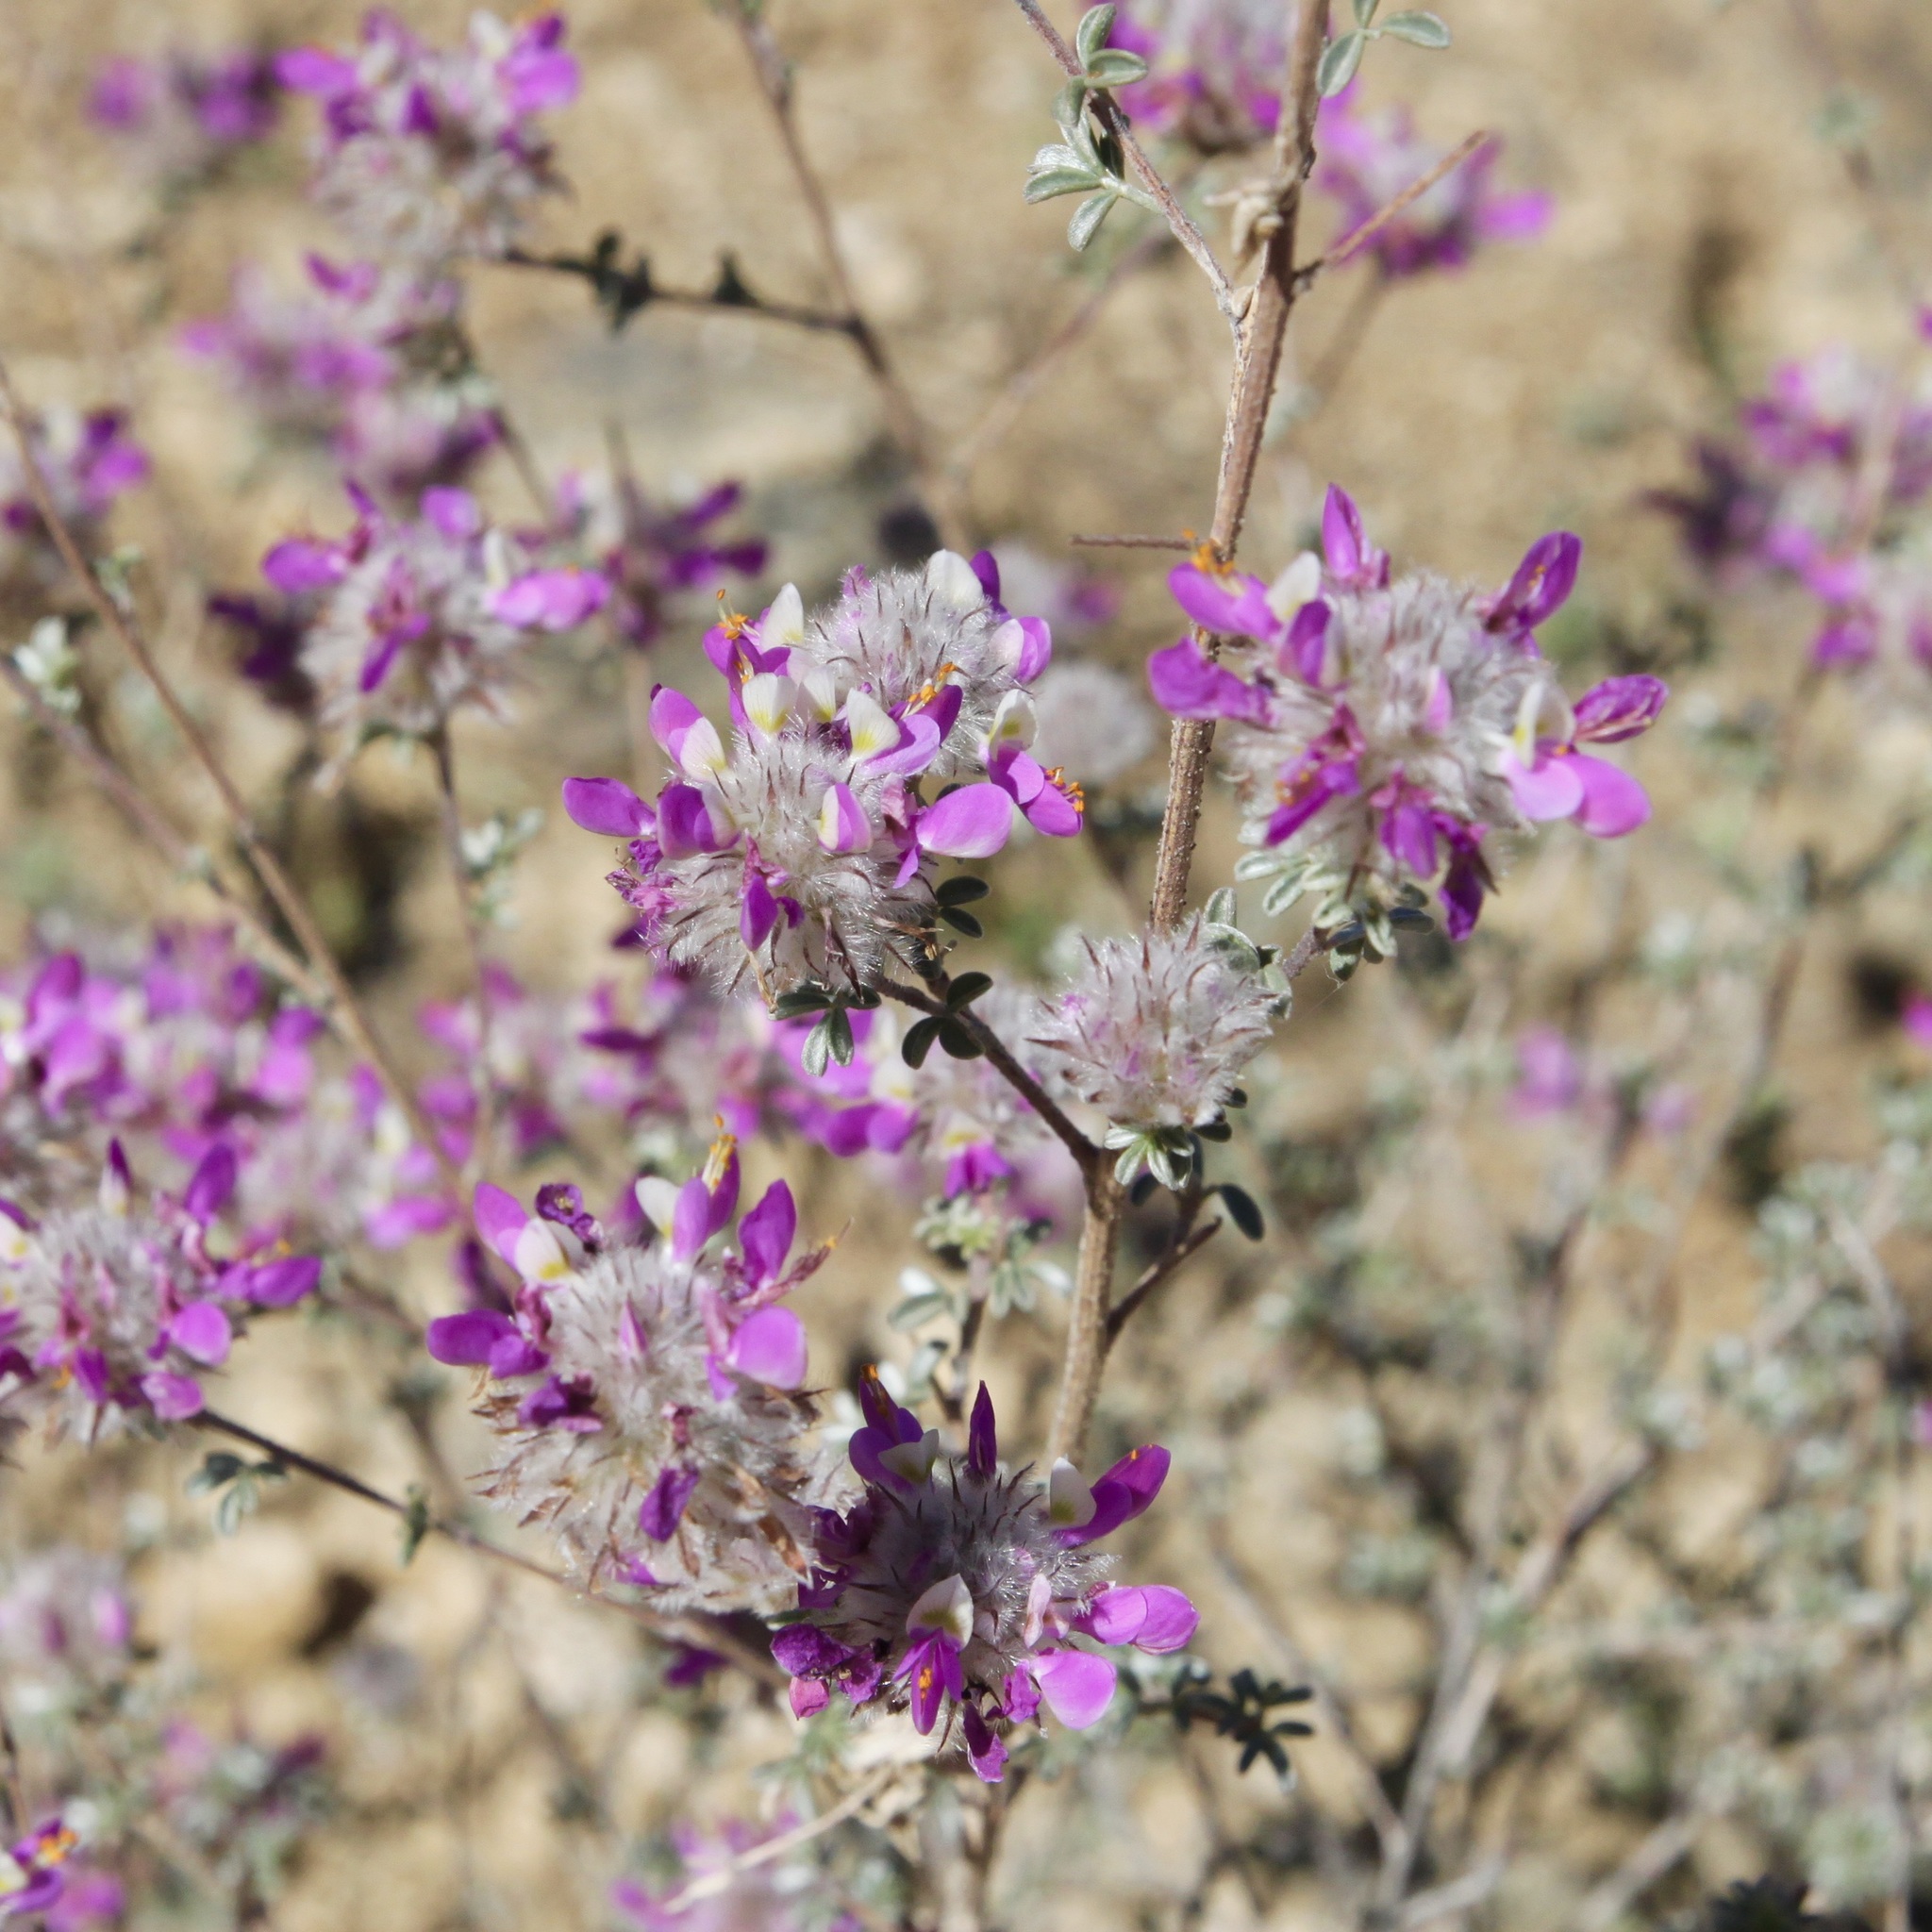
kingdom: Plantae
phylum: Tracheophyta
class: Magnoliopsida
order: Fabales
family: Fabaceae
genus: Dalea
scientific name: Dalea pulchra
